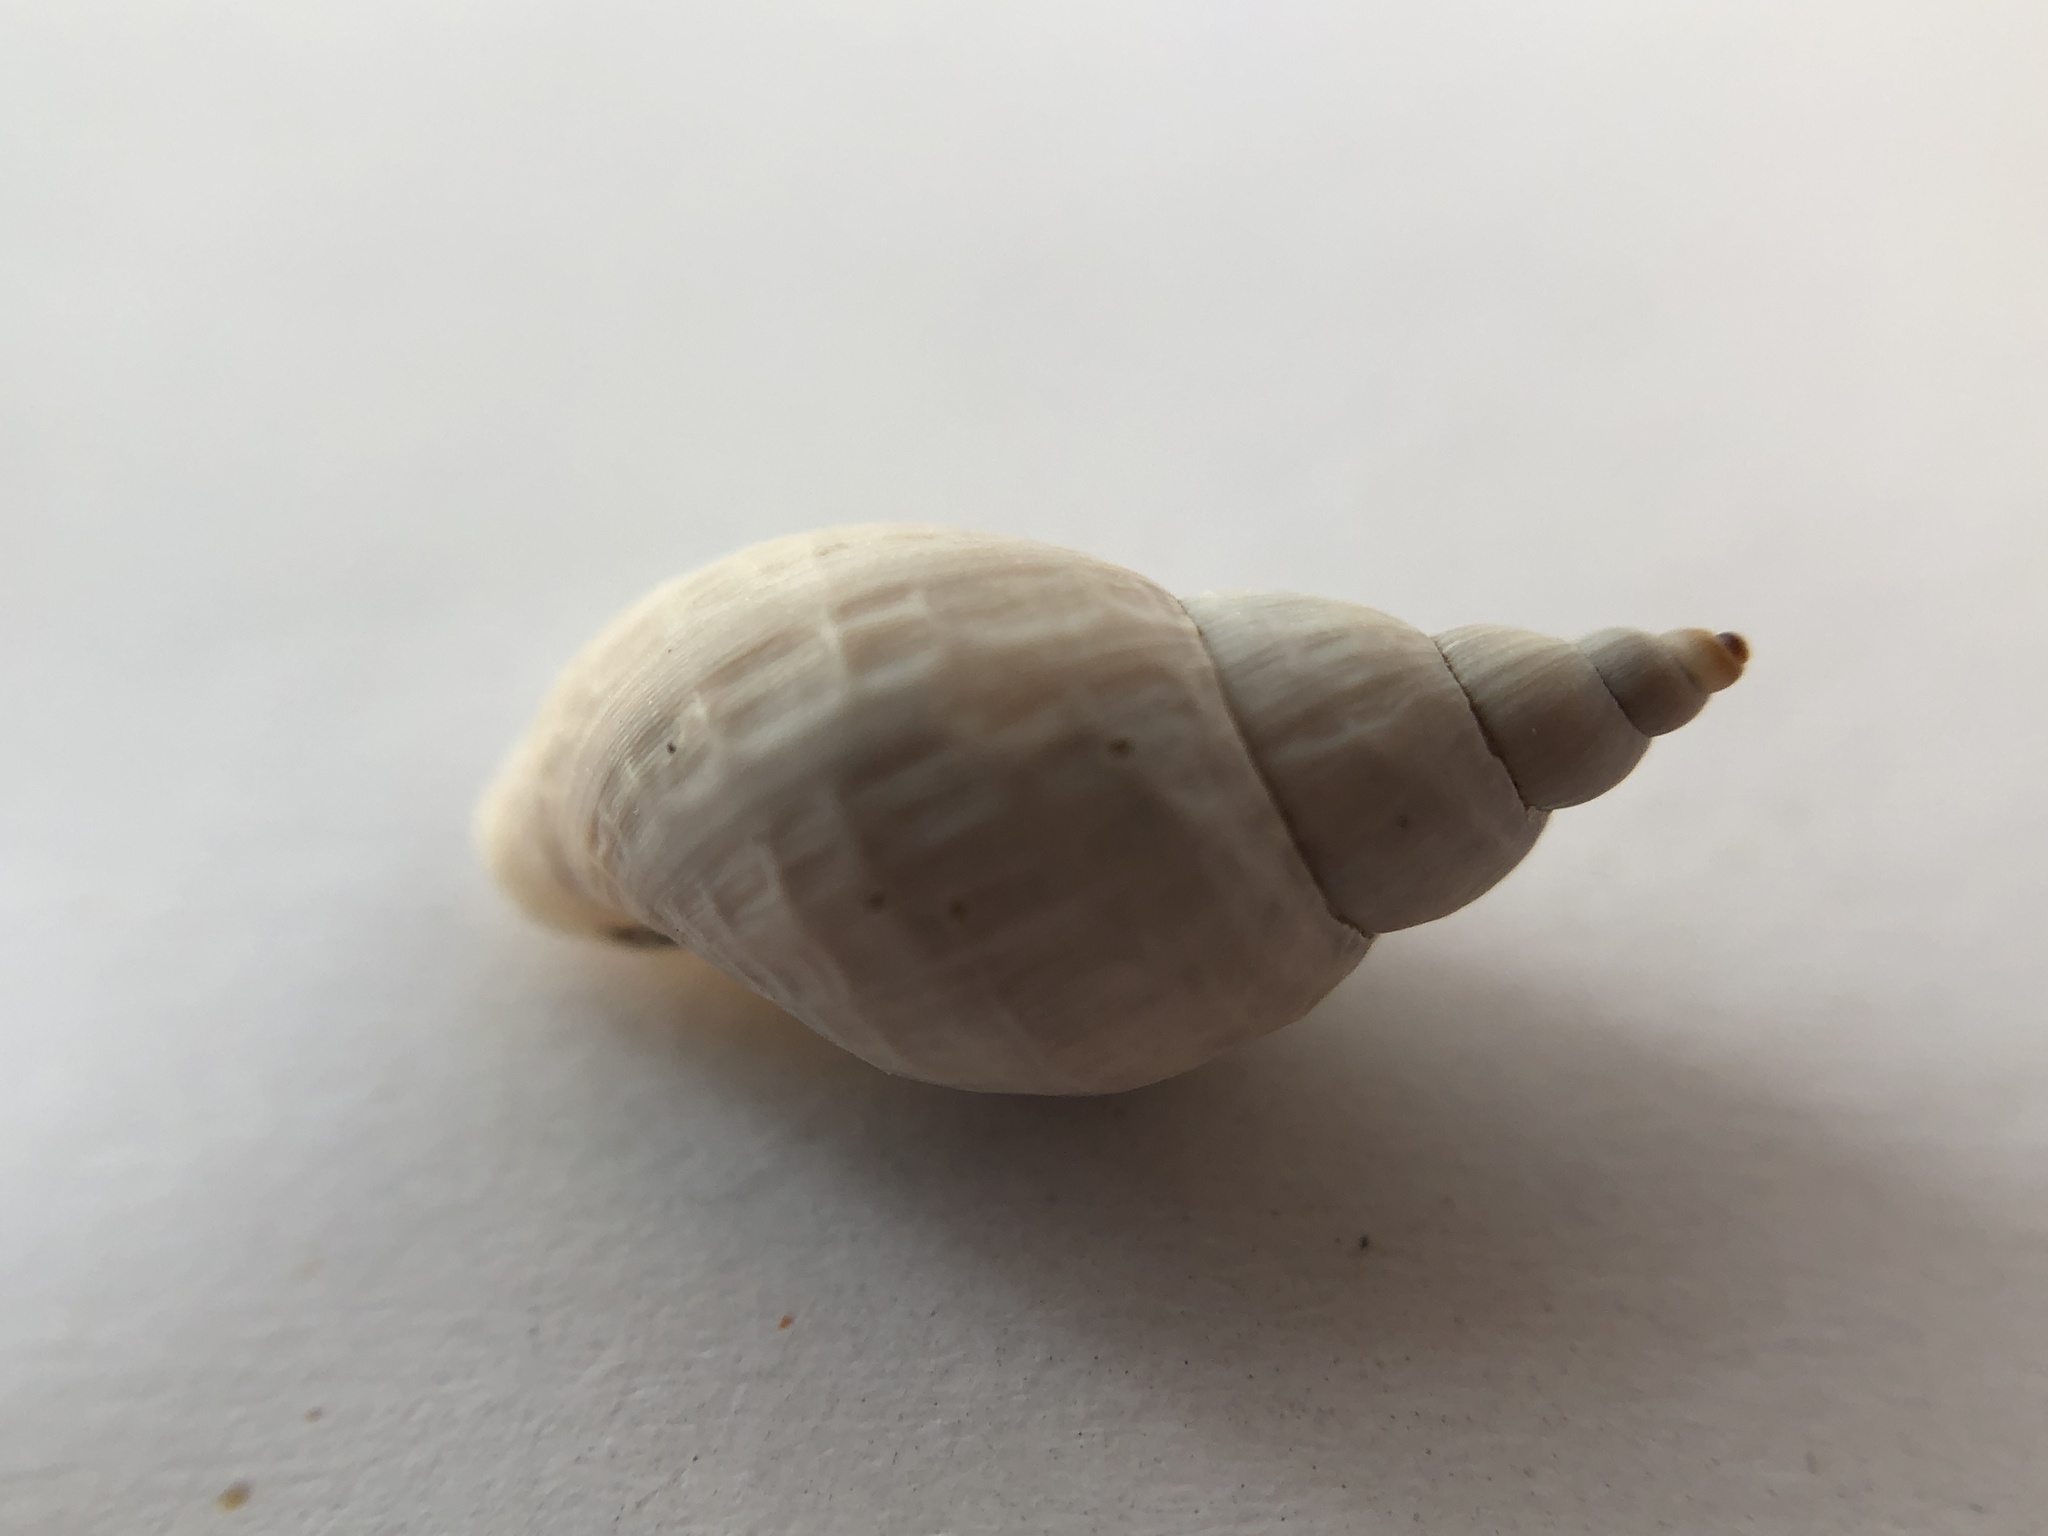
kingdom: Animalia
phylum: Mollusca
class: Gastropoda
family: Lymnaeidae
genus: Lymnaea
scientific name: Lymnaea stagnalis
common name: Great pond snail
